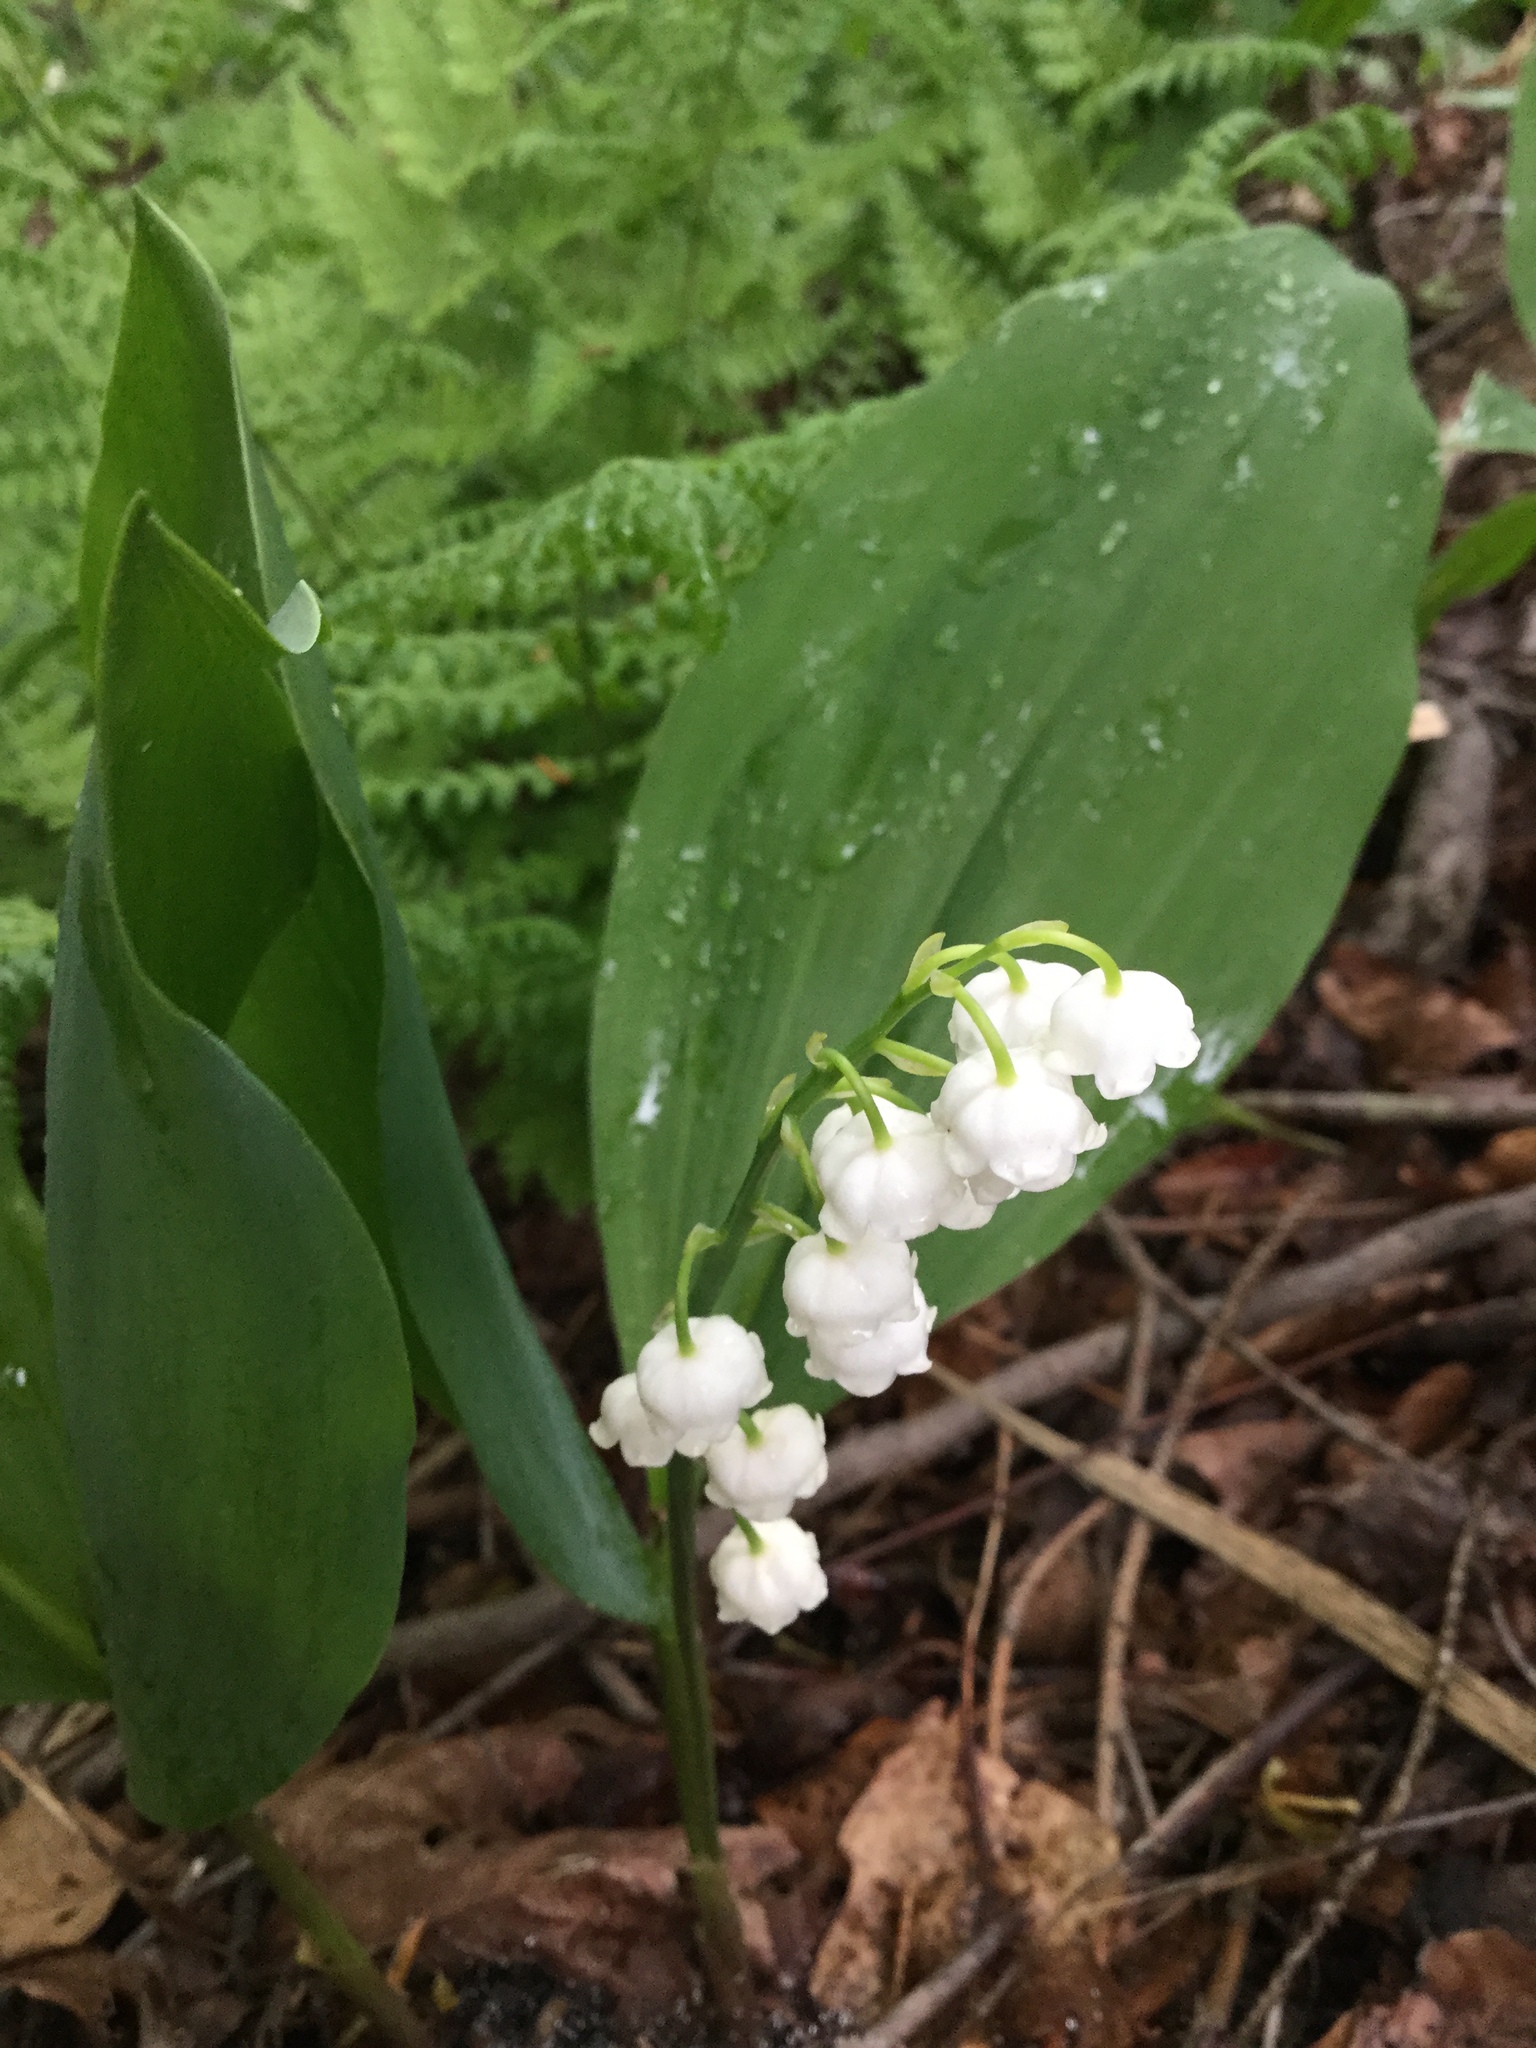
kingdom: Plantae
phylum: Tracheophyta
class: Liliopsida
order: Asparagales
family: Asparagaceae
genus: Convallaria
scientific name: Convallaria majalis
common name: Lily-of-the-valley
